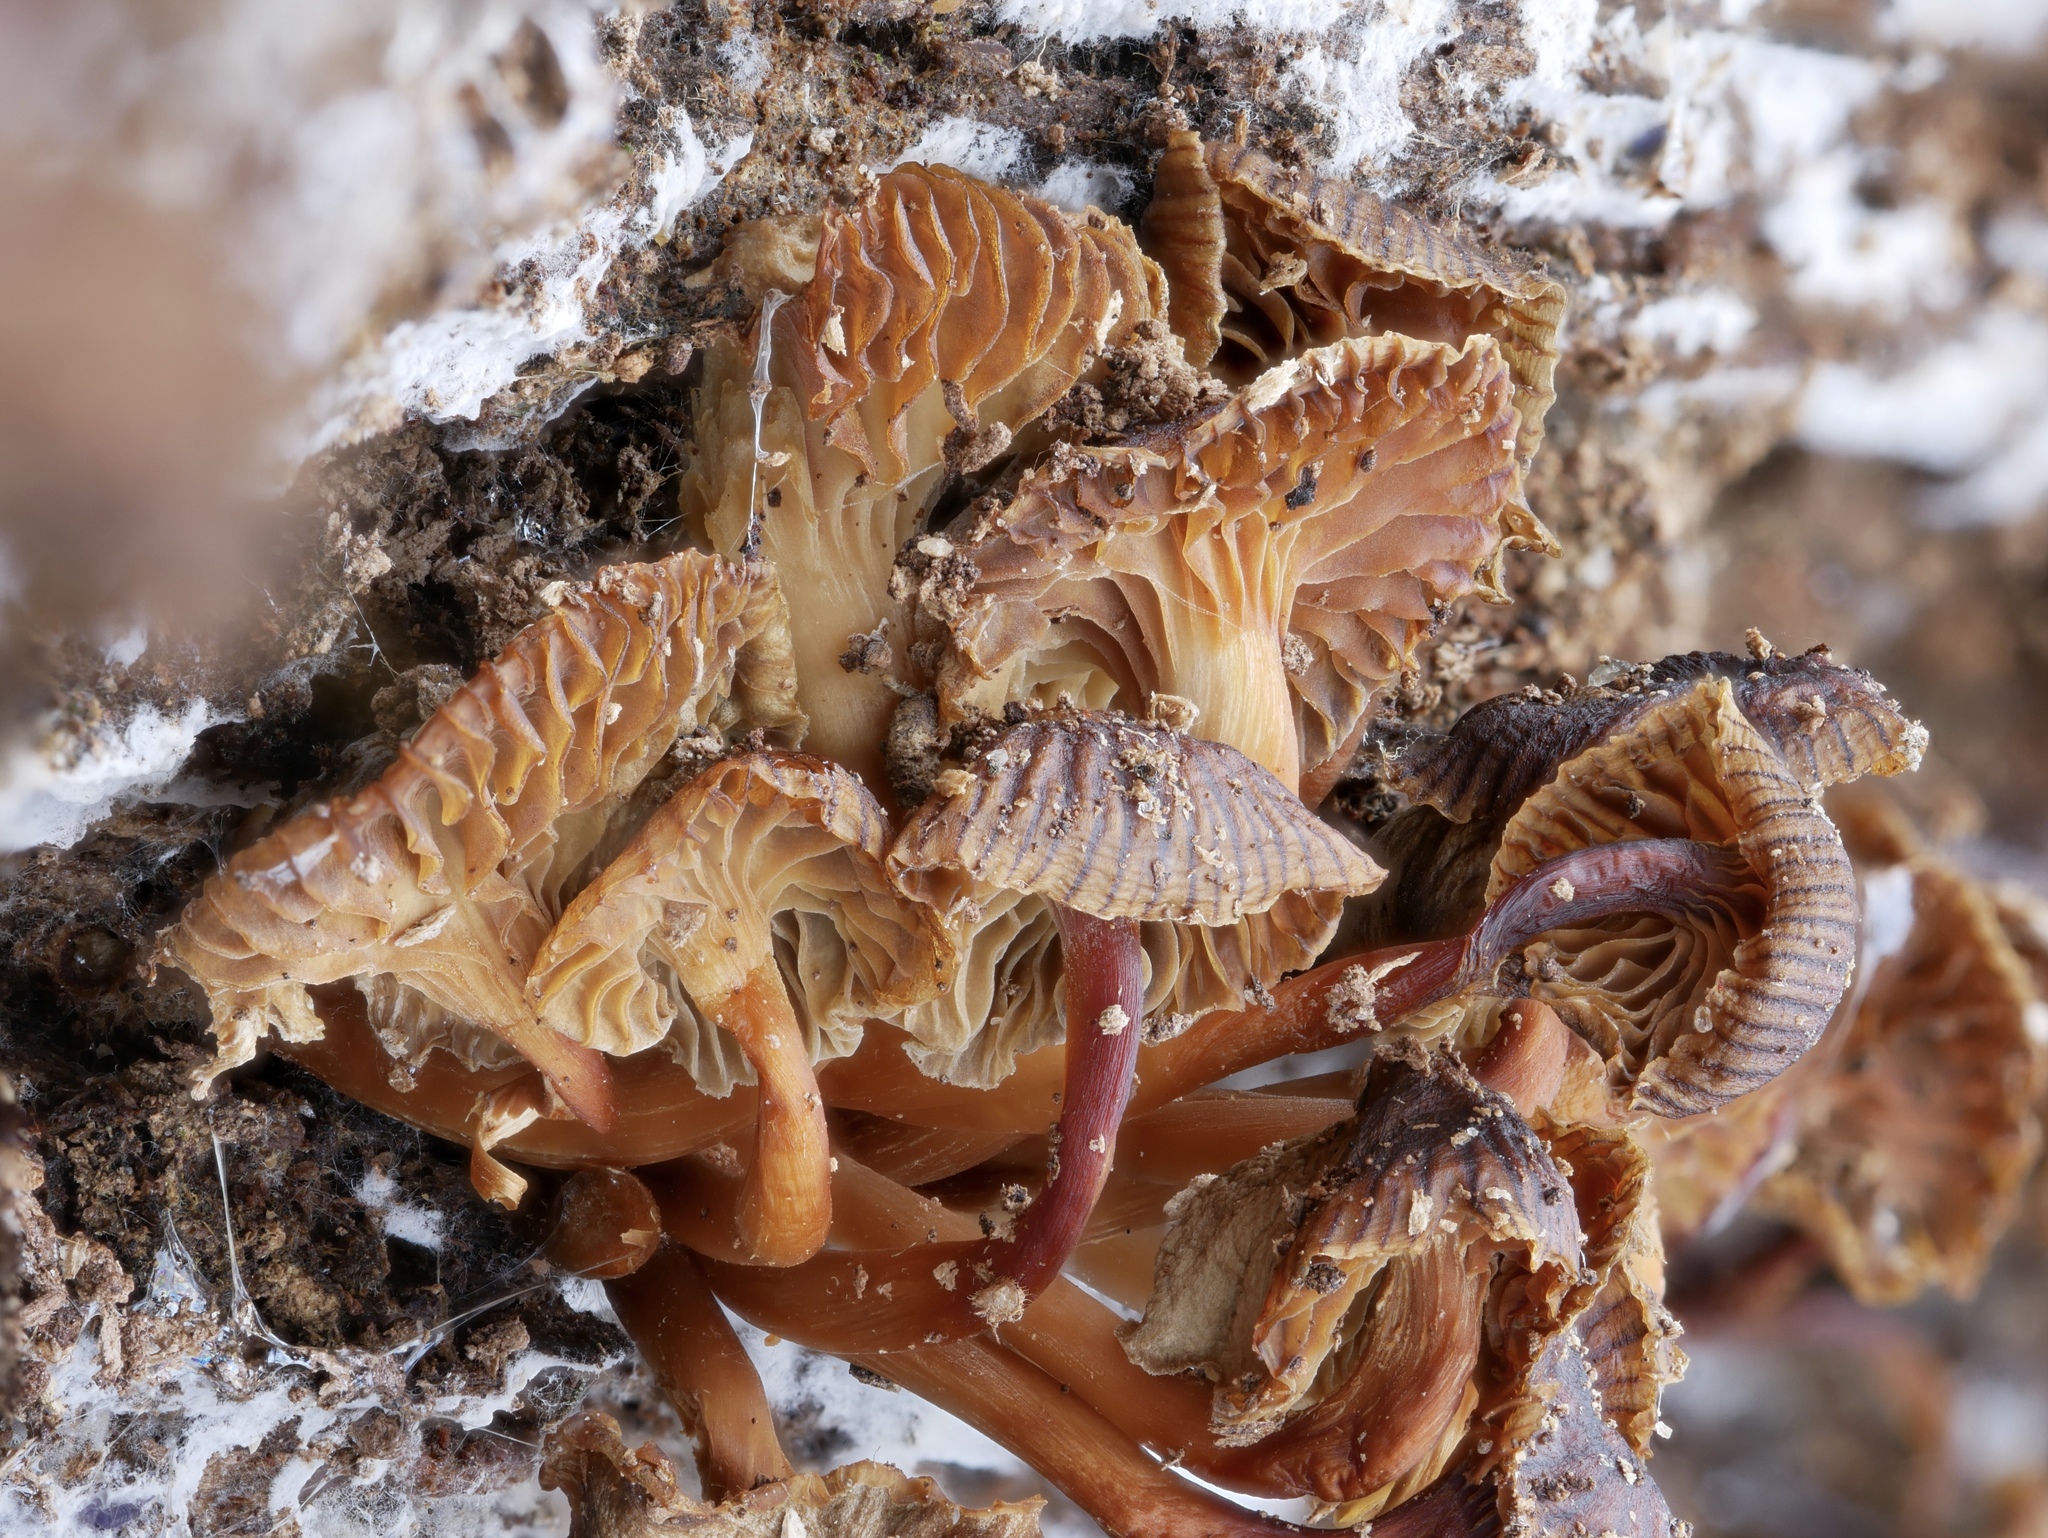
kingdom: Fungi
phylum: Basidiomycota
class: Agaricomycetes
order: Agaricales
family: Mycenaceae
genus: Mycena
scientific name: Mycena overholtsii
